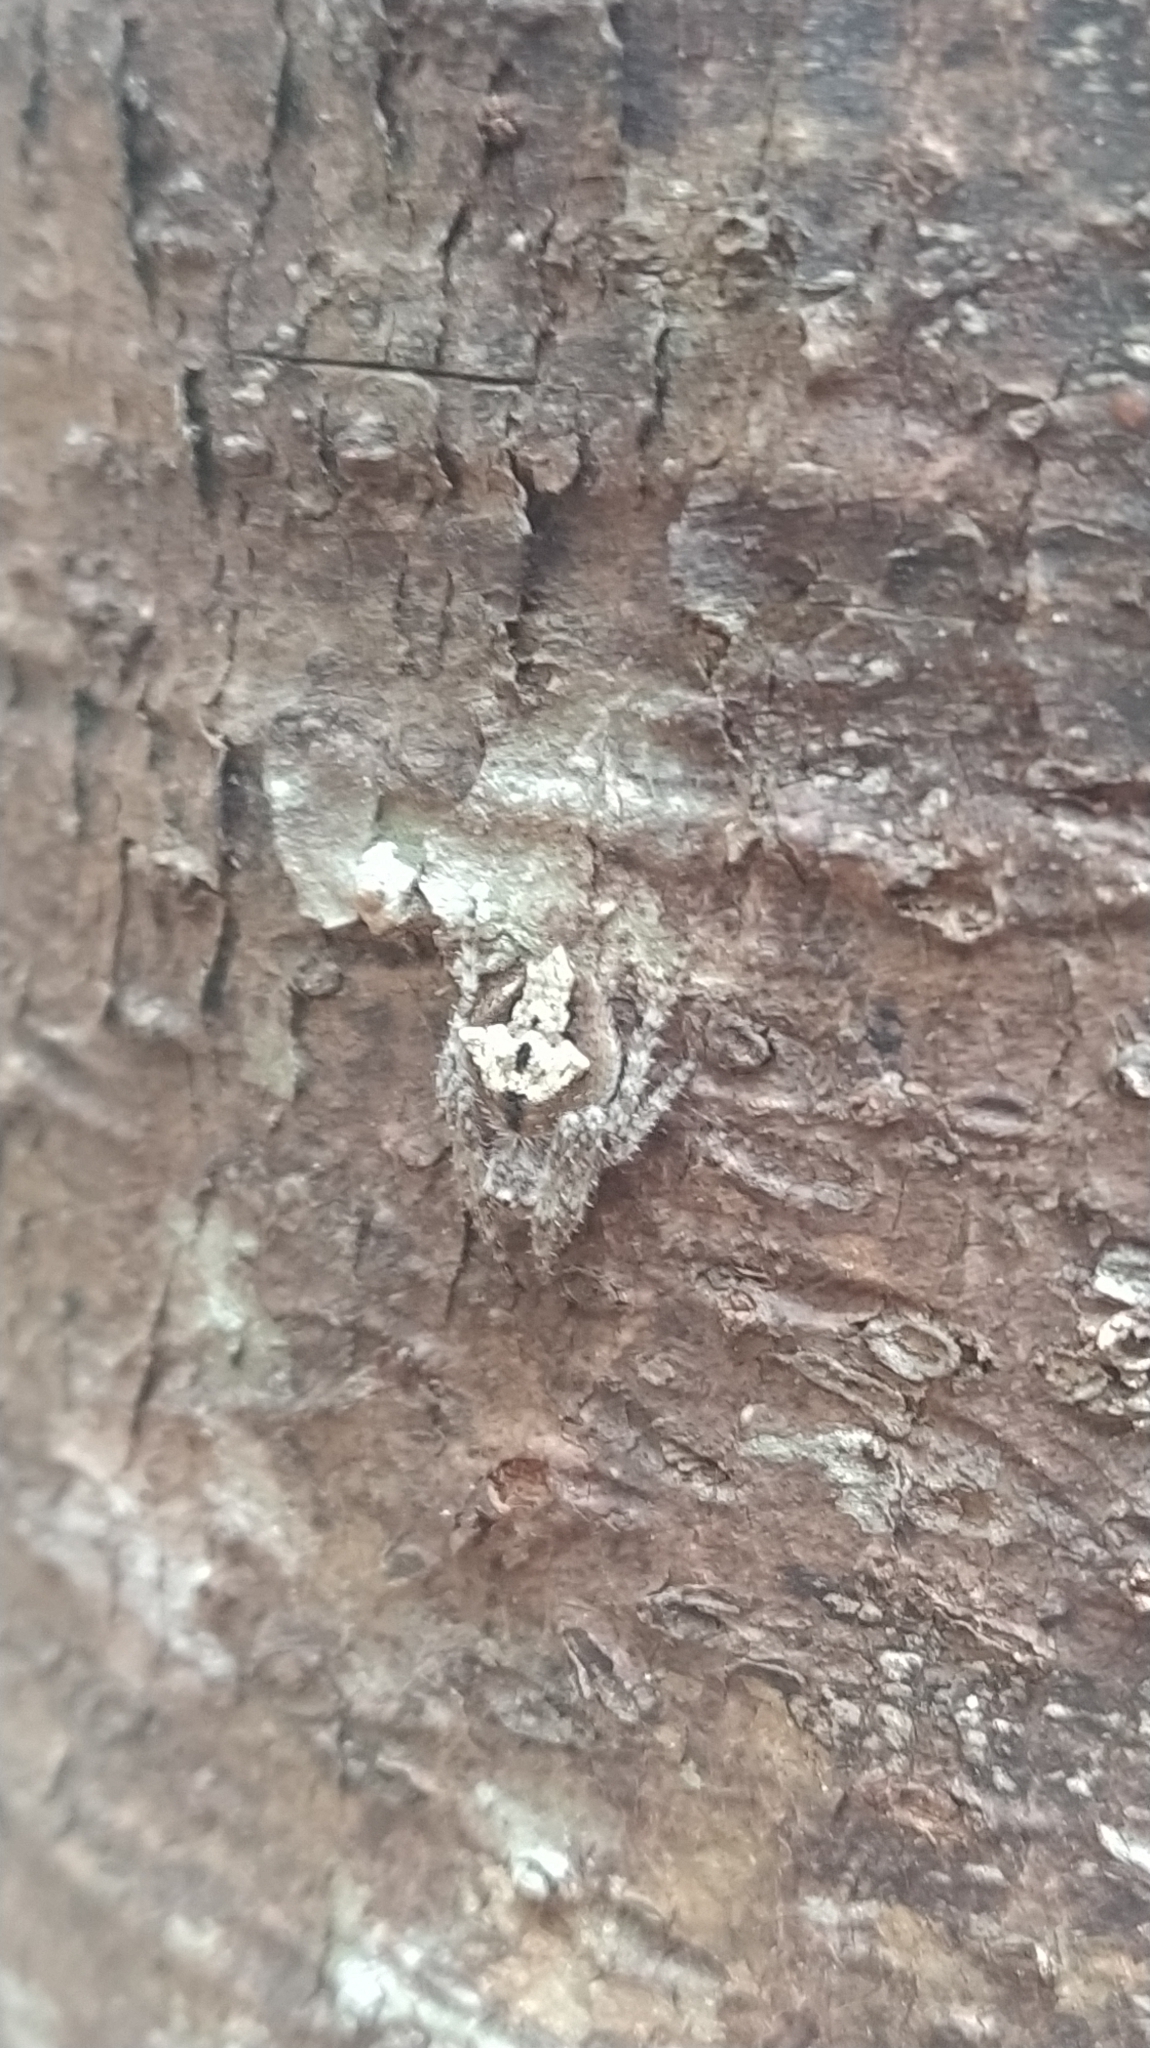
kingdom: Animalia
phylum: Arthropoda
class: Arachnida
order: Araneae
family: Araneidae
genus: Eriophora
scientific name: Eriophora pustulosa
